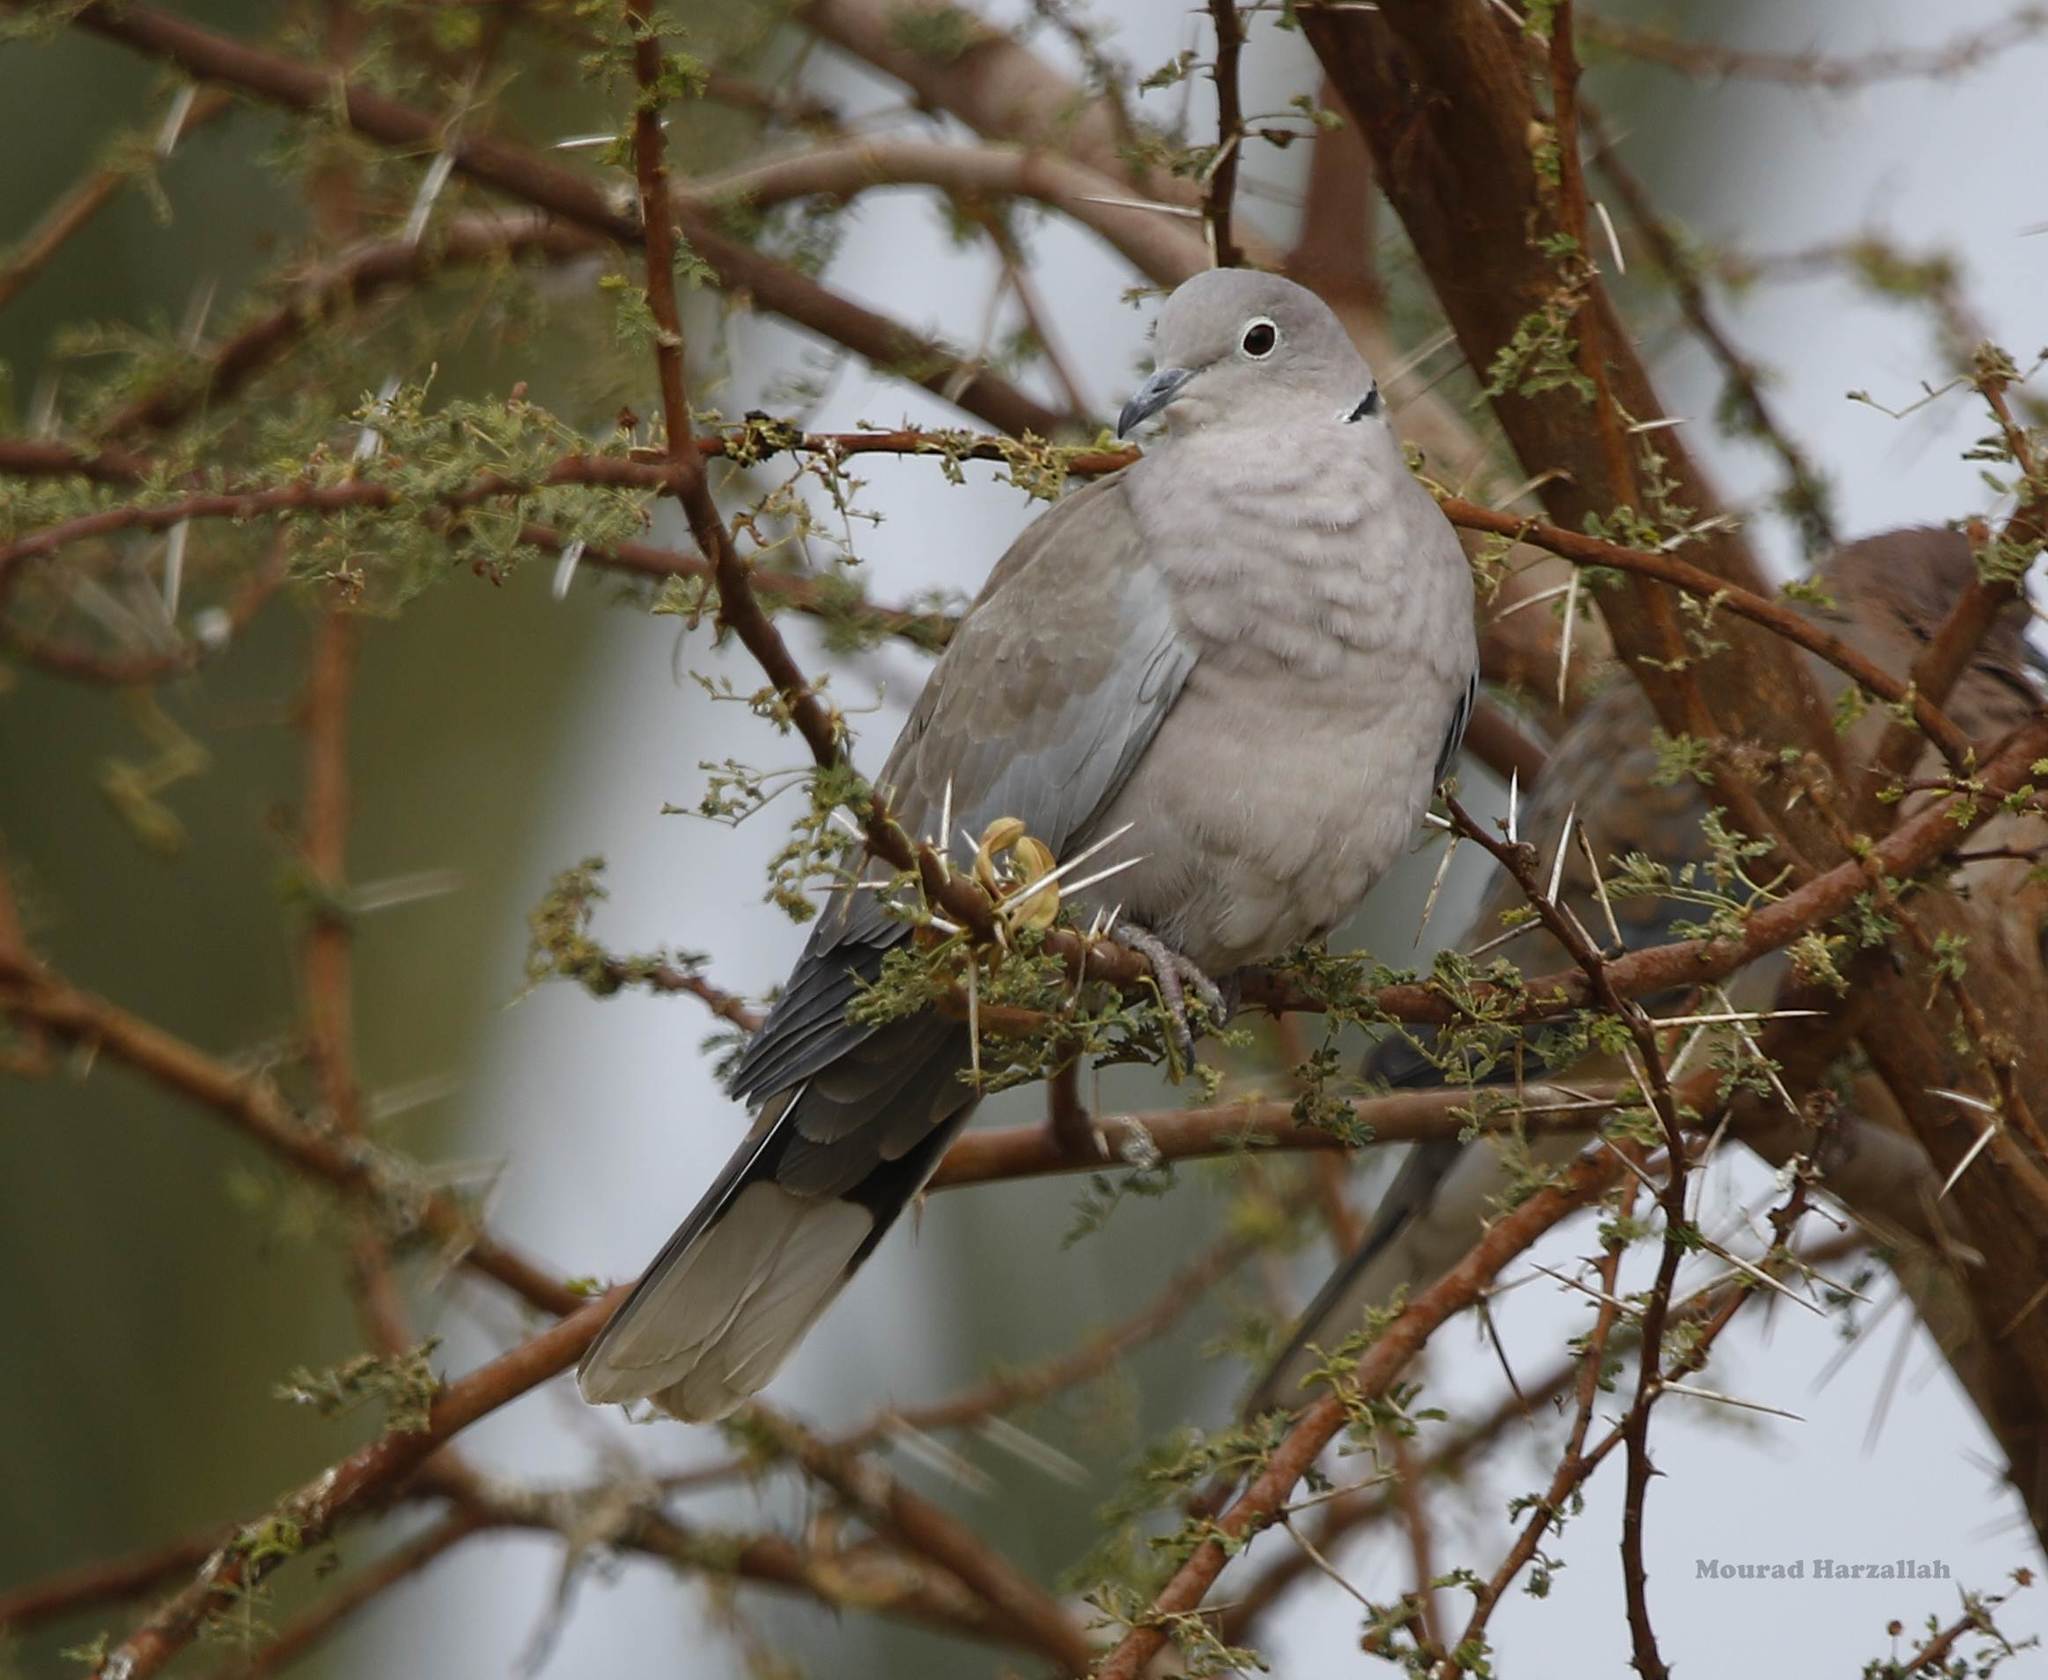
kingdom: Animalia
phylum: Chordata
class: Aves
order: Columbiformes
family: Columbidae
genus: Streptopelia
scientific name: Streptopelia decaocto
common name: Eurasian collared dove
